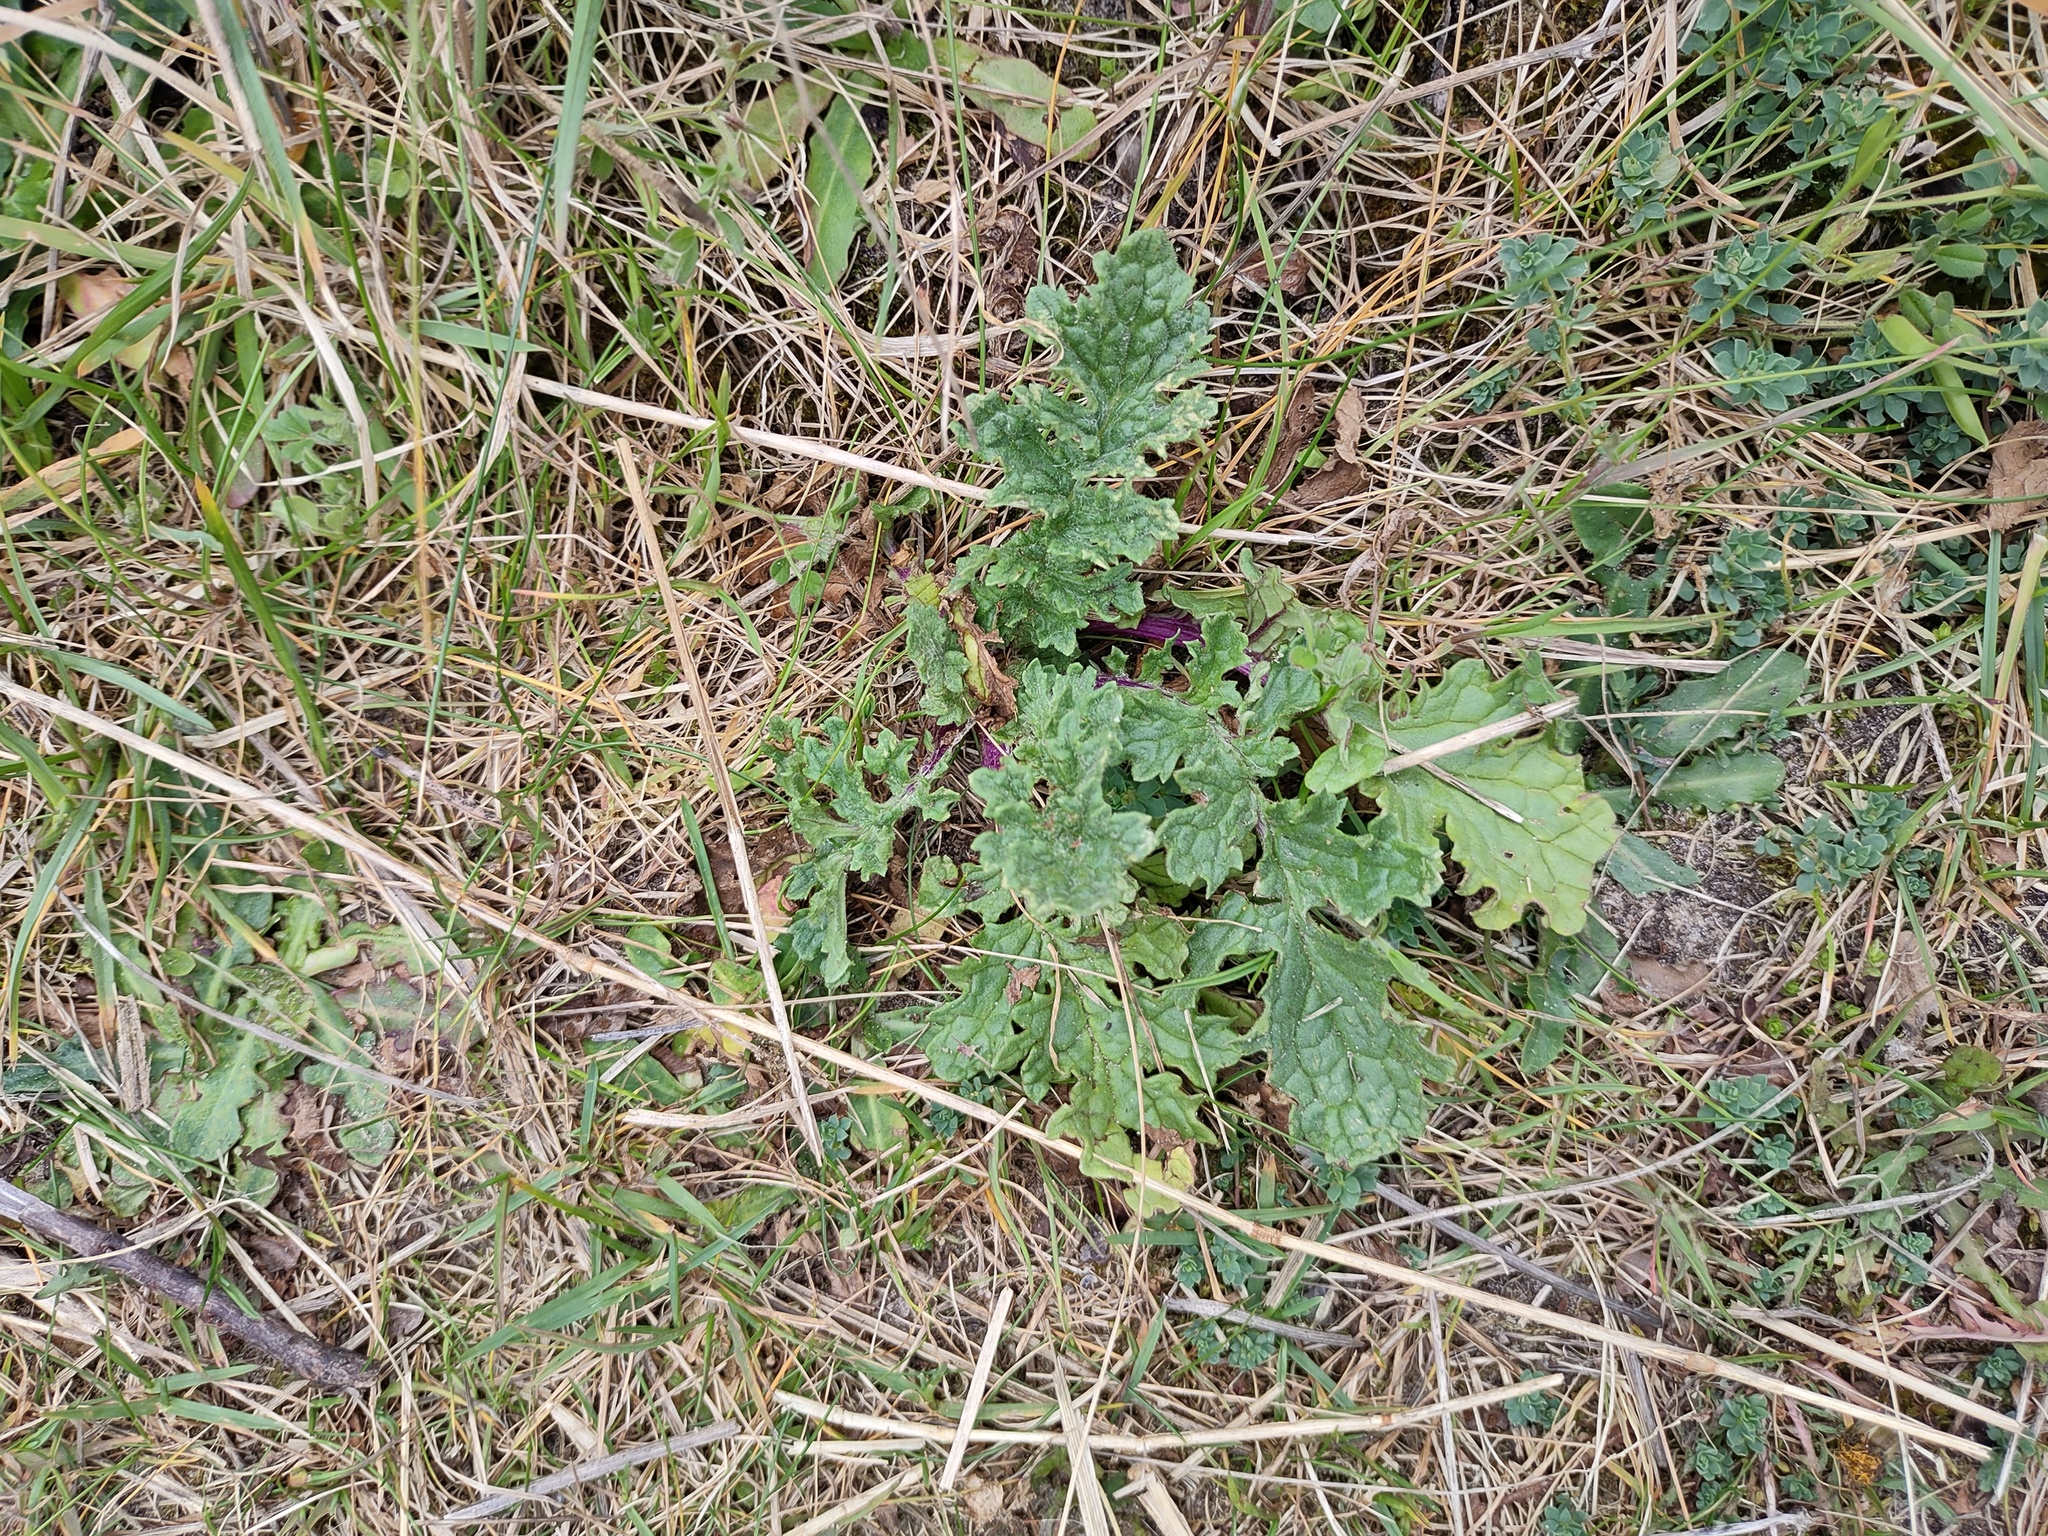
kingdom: Plantae
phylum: Tracheophyta
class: Magnoliopsida
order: Asterales
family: Asteraceae
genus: Jacobaea
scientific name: Jacobaea vulgaris
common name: Stinking willie
